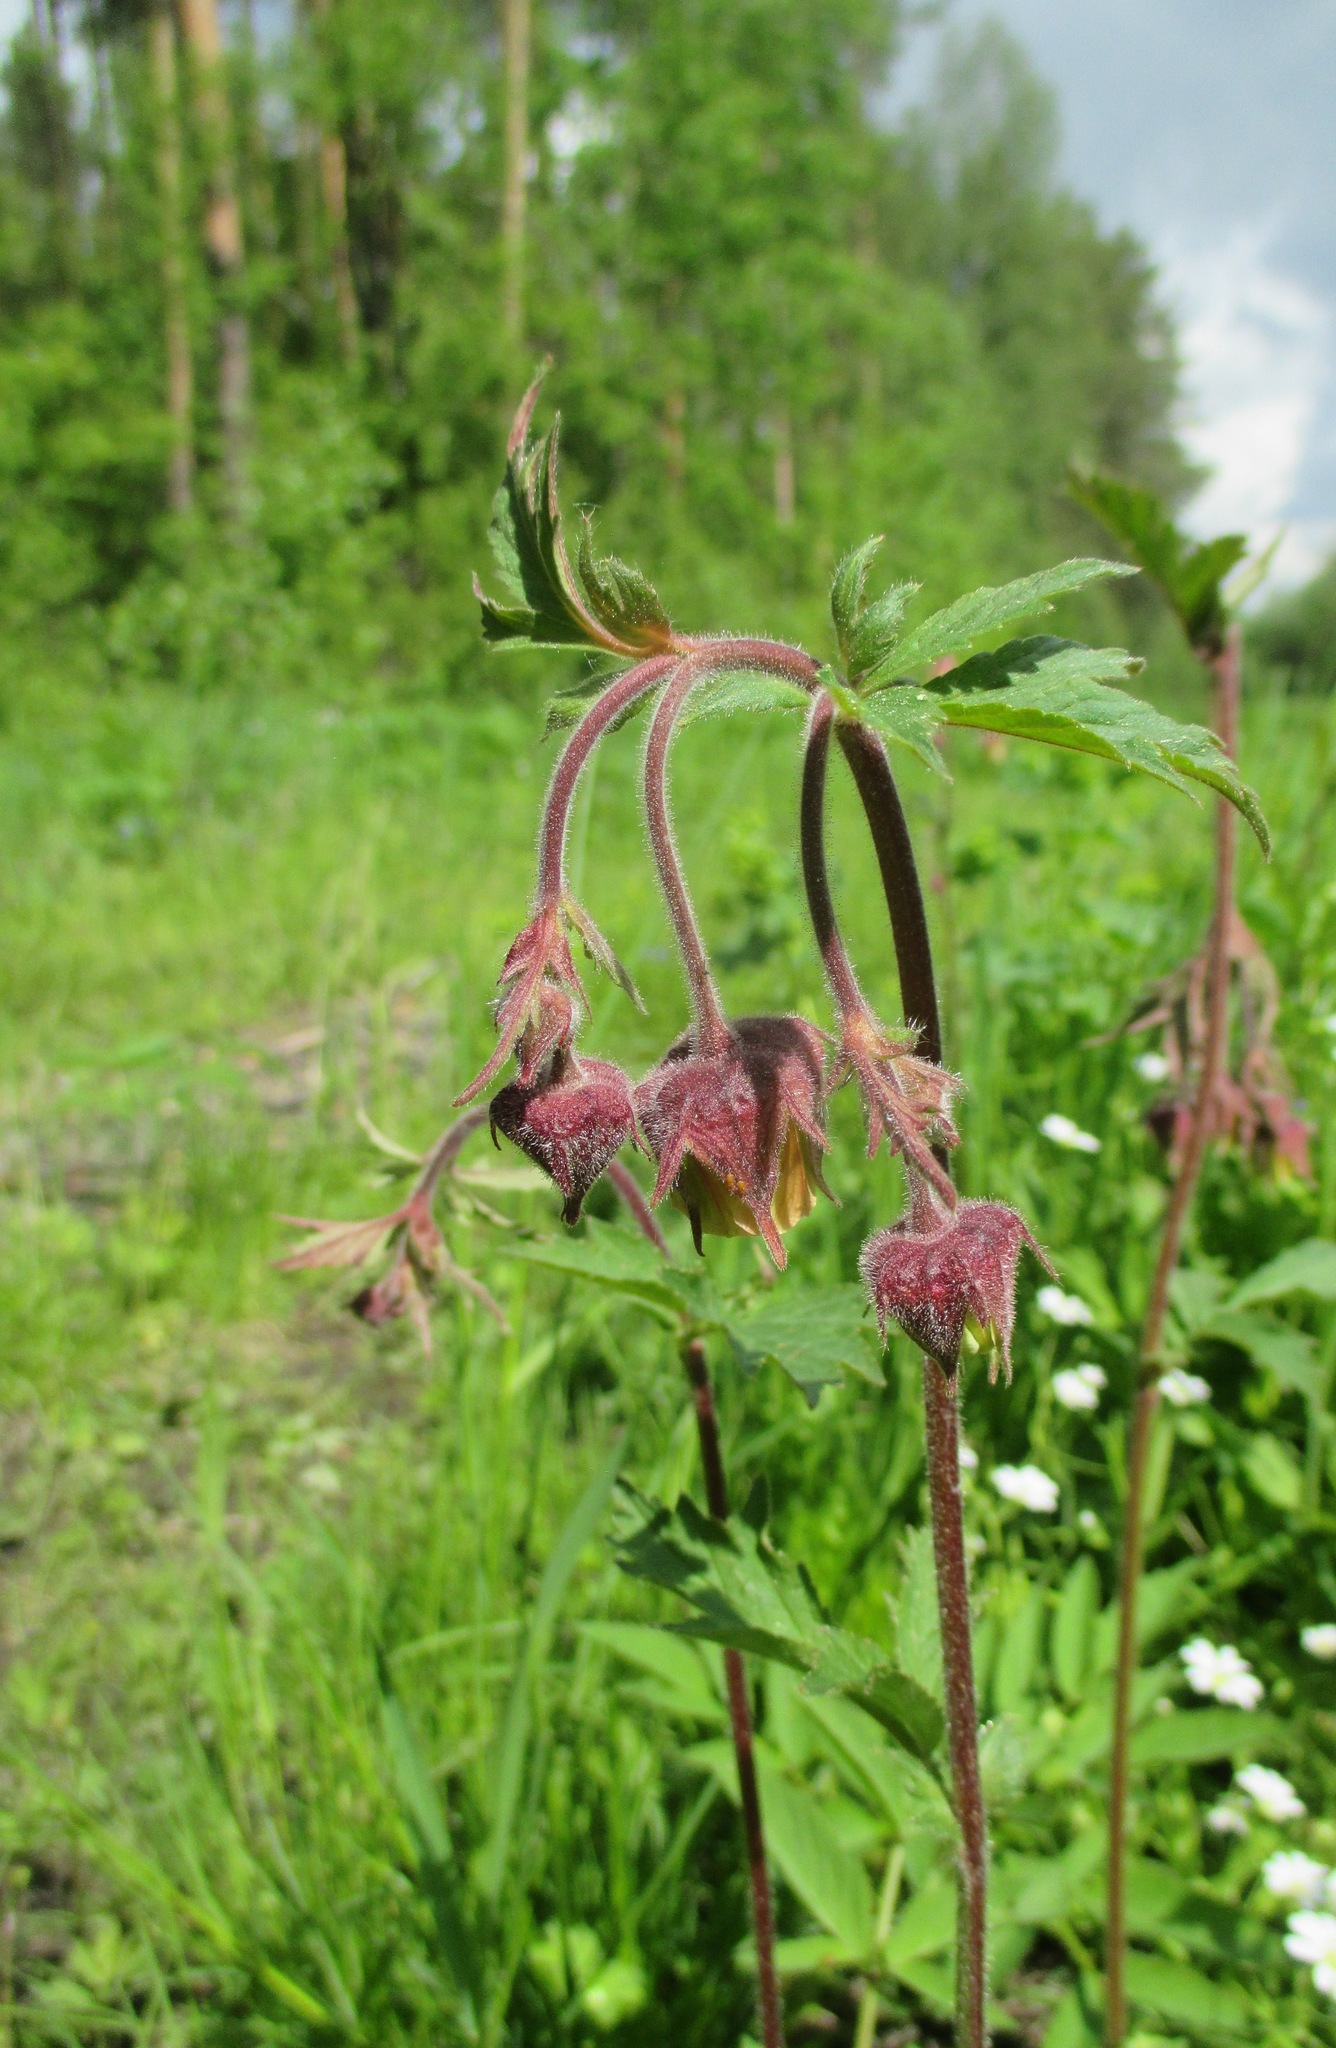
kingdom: Plantae
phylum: Tracheophyta
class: Magnoliopsida
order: Rosales
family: Rosaceae
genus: Geum
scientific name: Geum rivale
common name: Water avens
